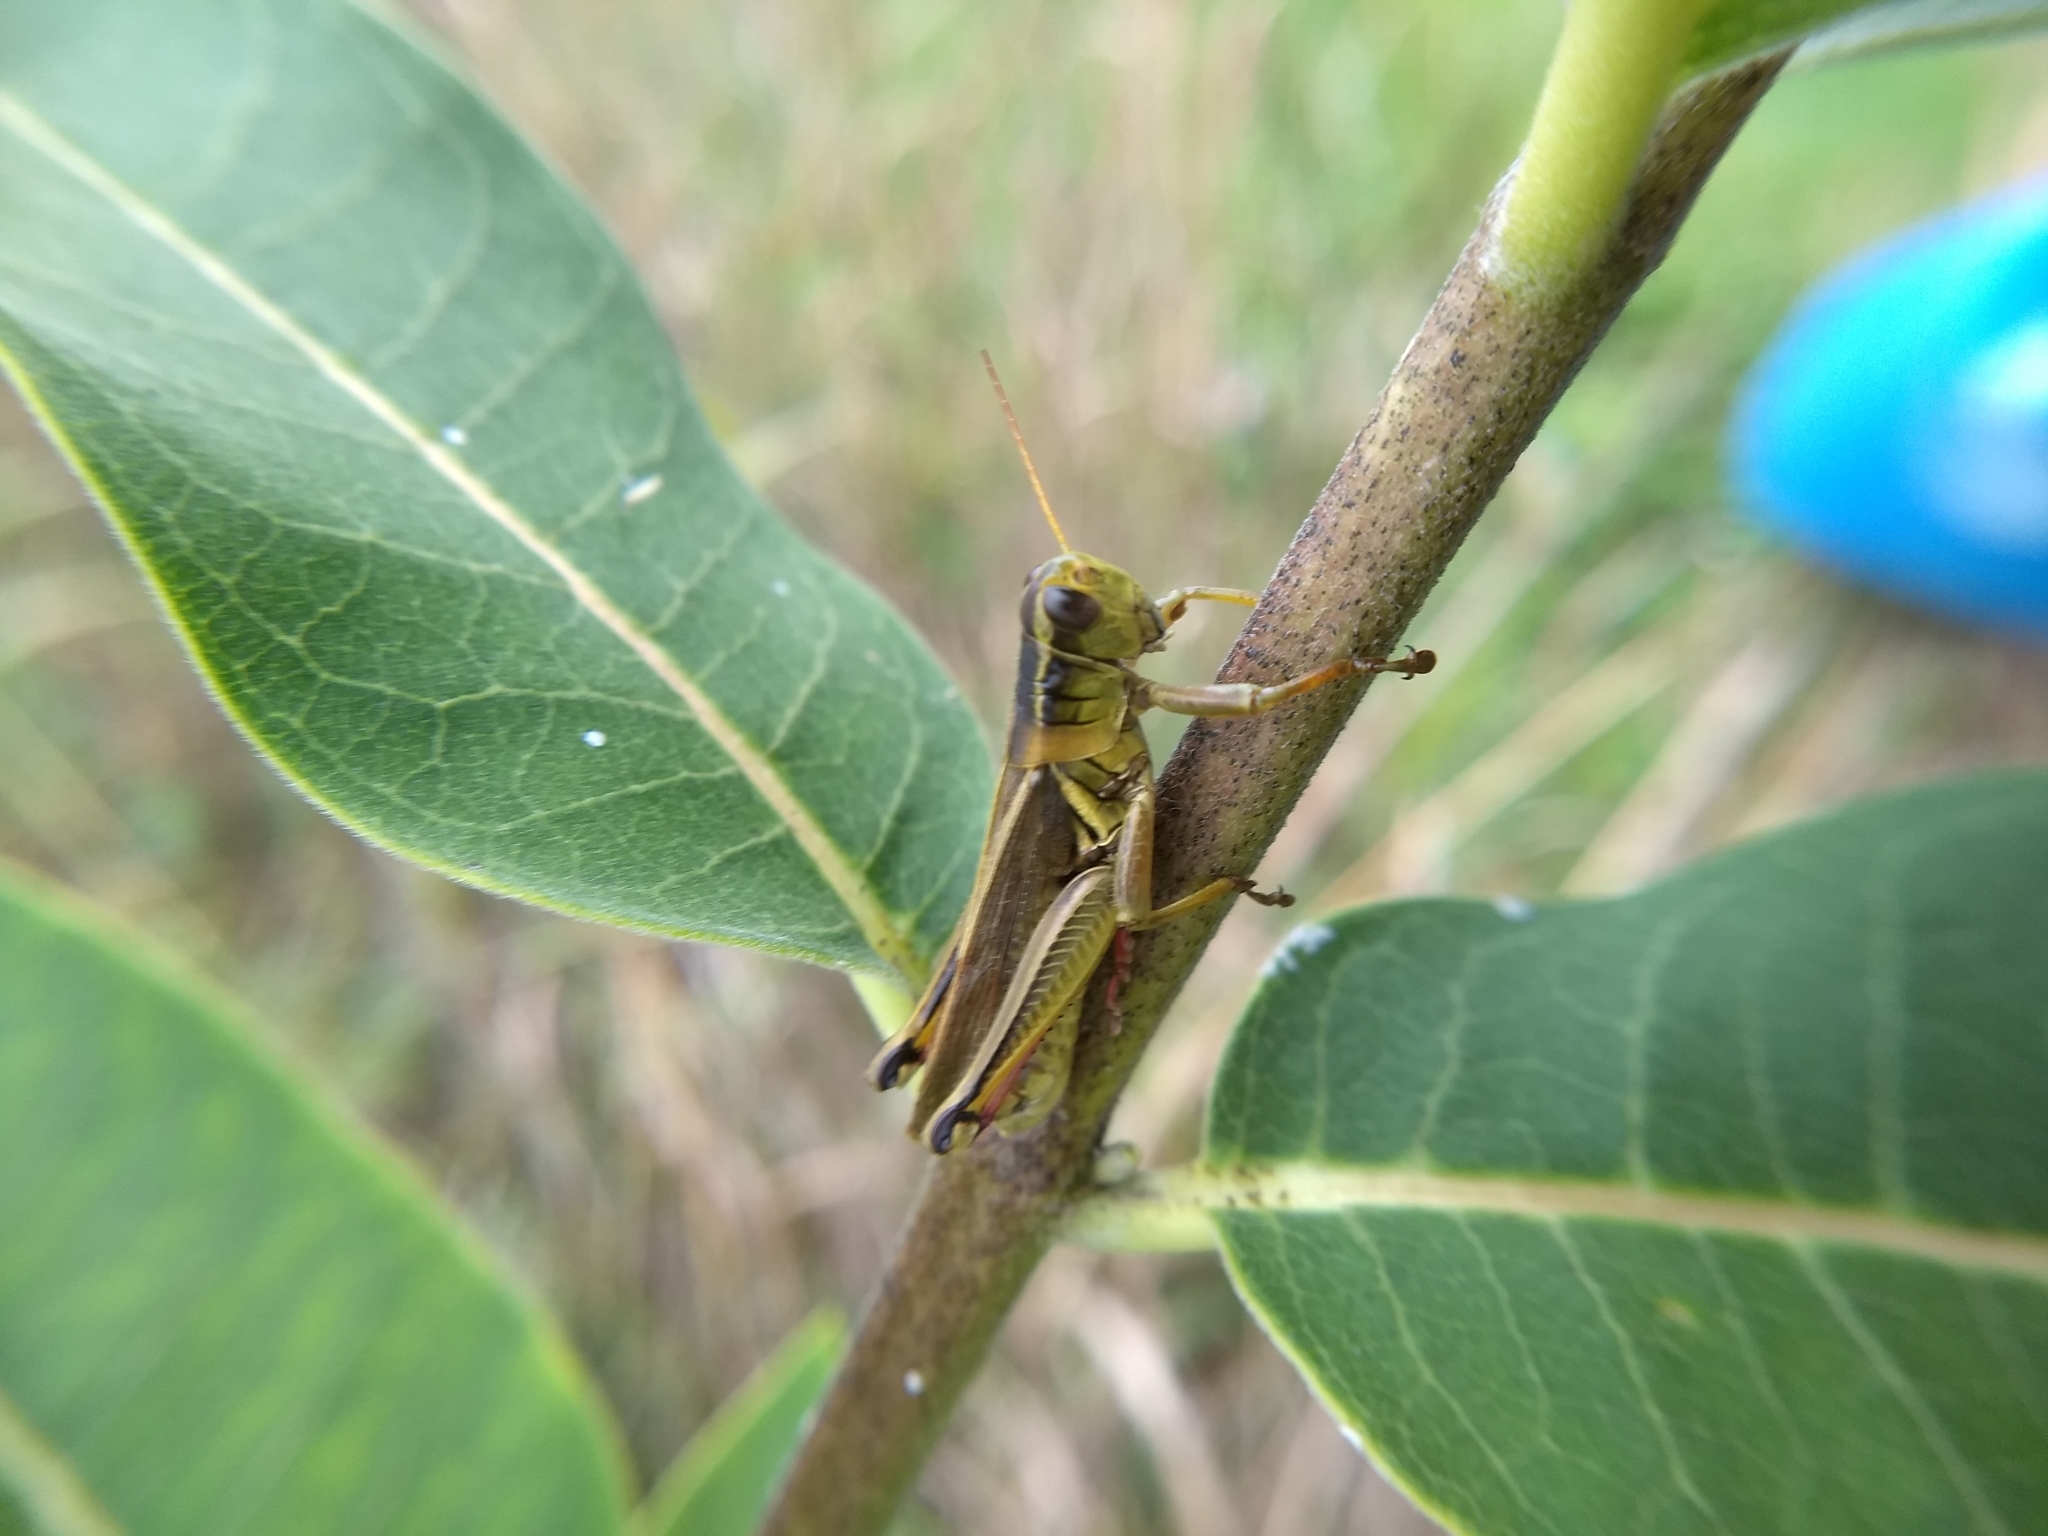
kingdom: Animalia
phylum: Arthropoda
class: Insecta
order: Orthoptera
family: Acrididae
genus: Melanoplus
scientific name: Melanoplus bivittatus
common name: Two-striped grasshopper
